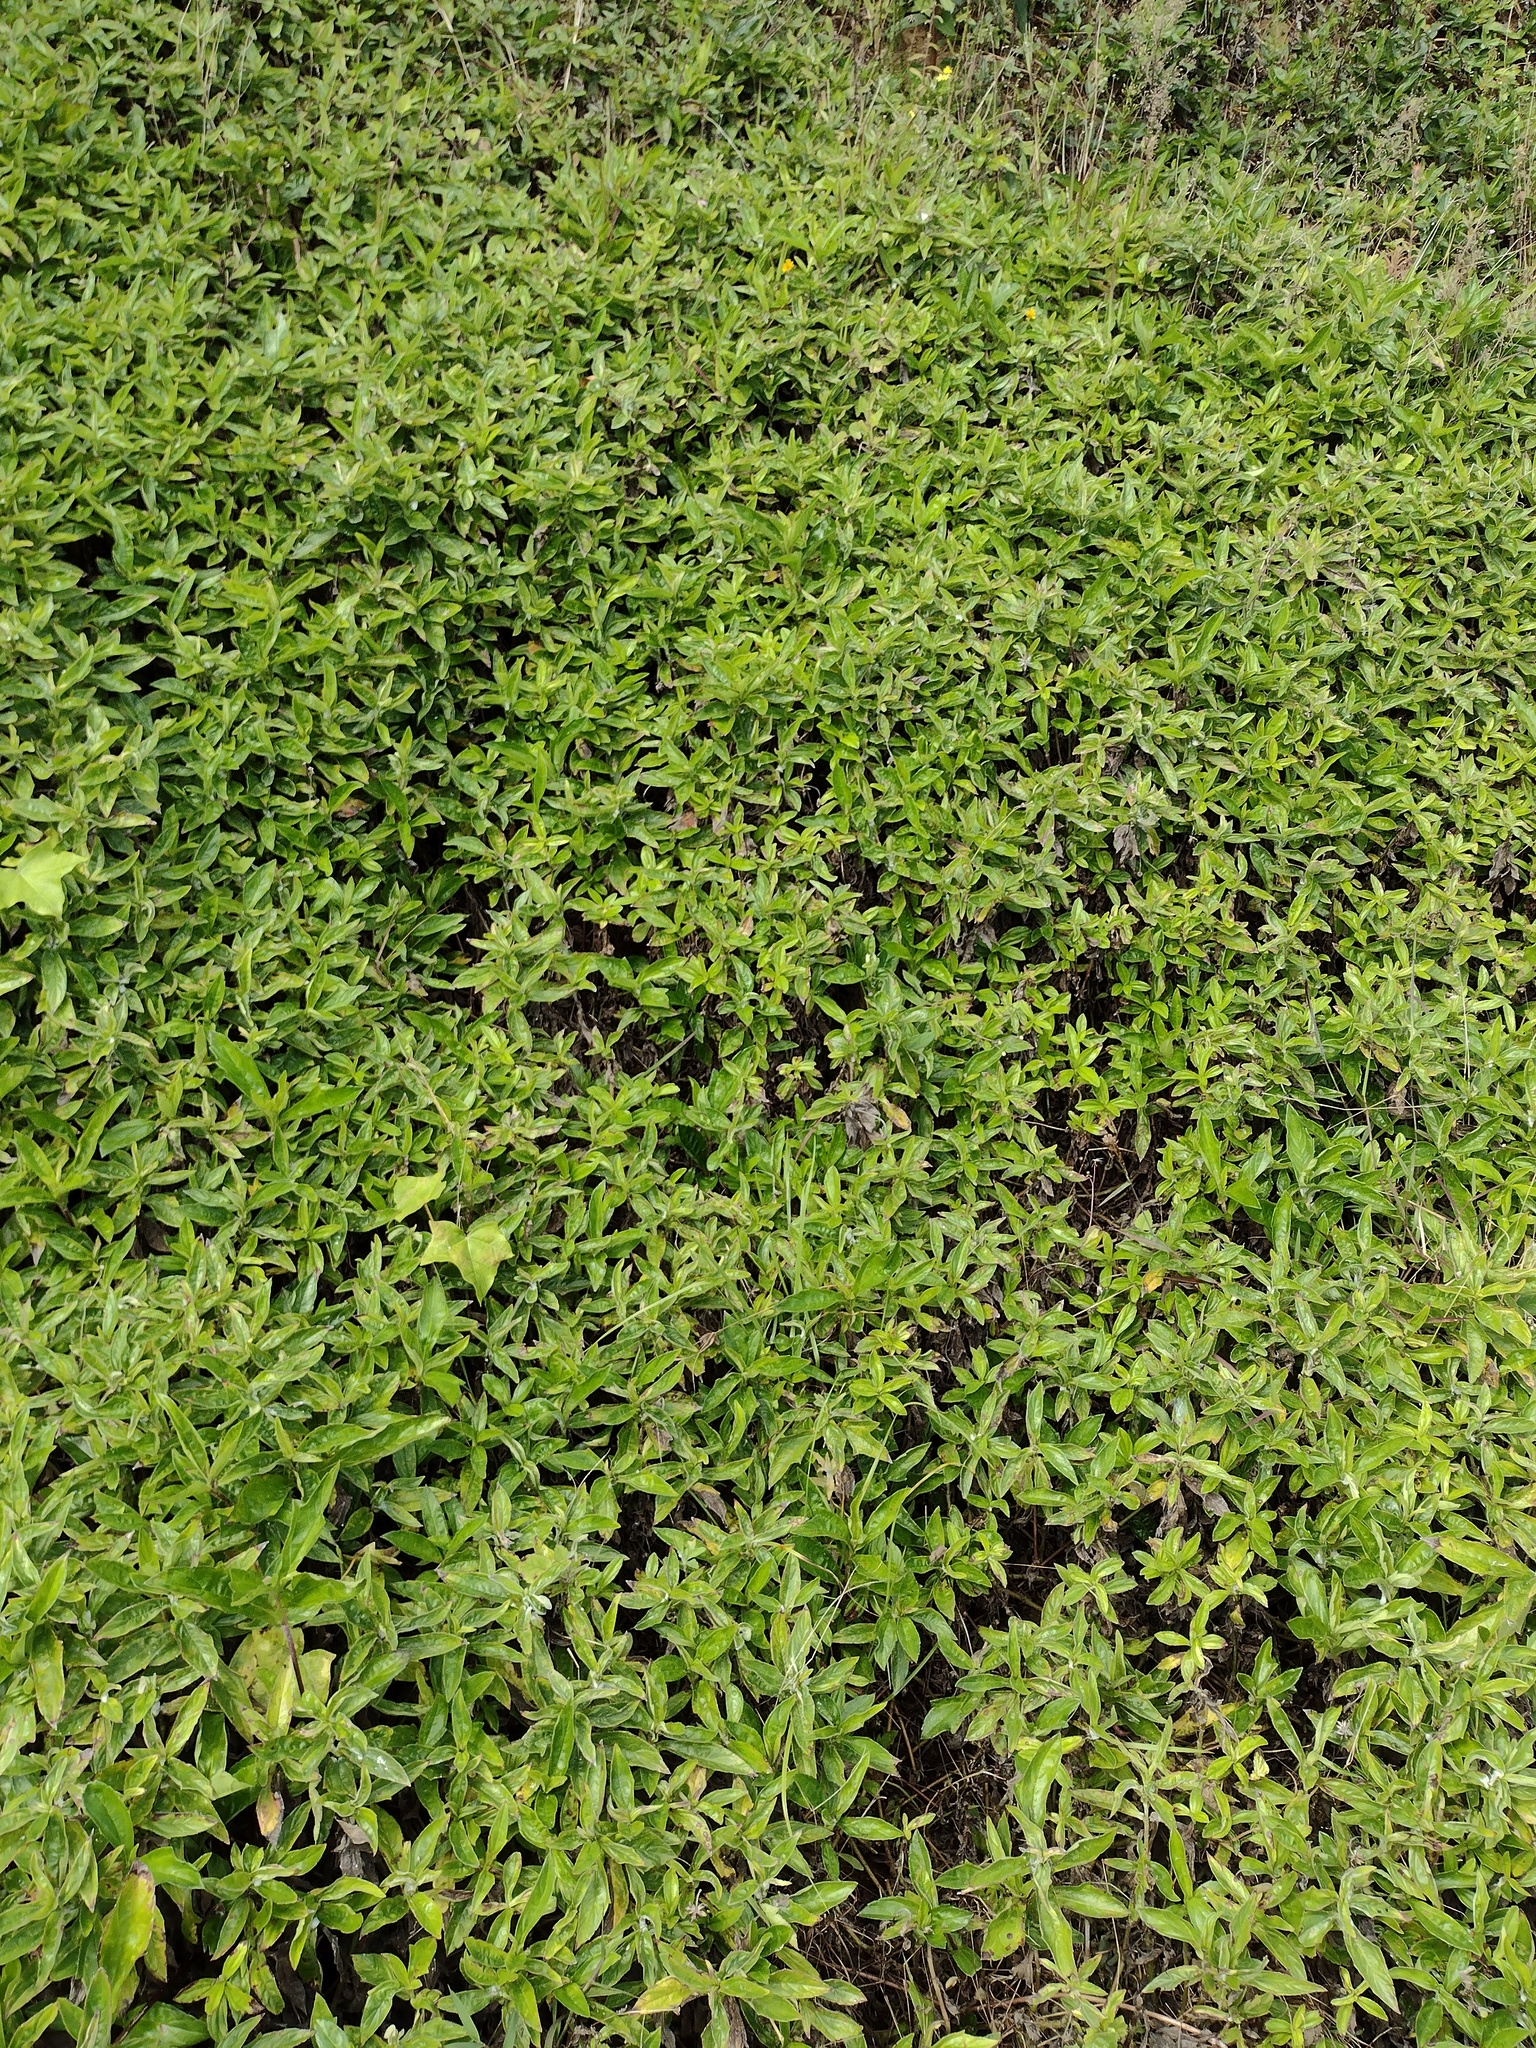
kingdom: Plantae
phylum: Tracheophyta
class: Magnoliopsida
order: Asterales
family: Asteraceae
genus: Sphagneticola
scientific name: Sphagneticola trilobata
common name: Bay biscayne creeping-oxeye
